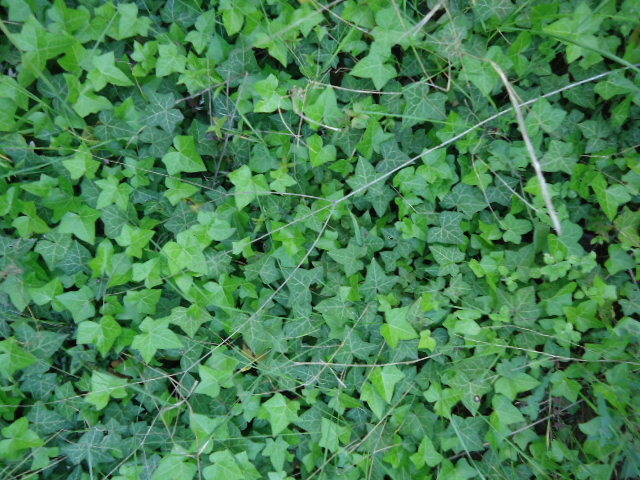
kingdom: Plantae
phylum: Tracheophyta
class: Magnoliopsida
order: Apiales
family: Araliaceae
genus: Hedera
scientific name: Hedera helix
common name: Ivy
